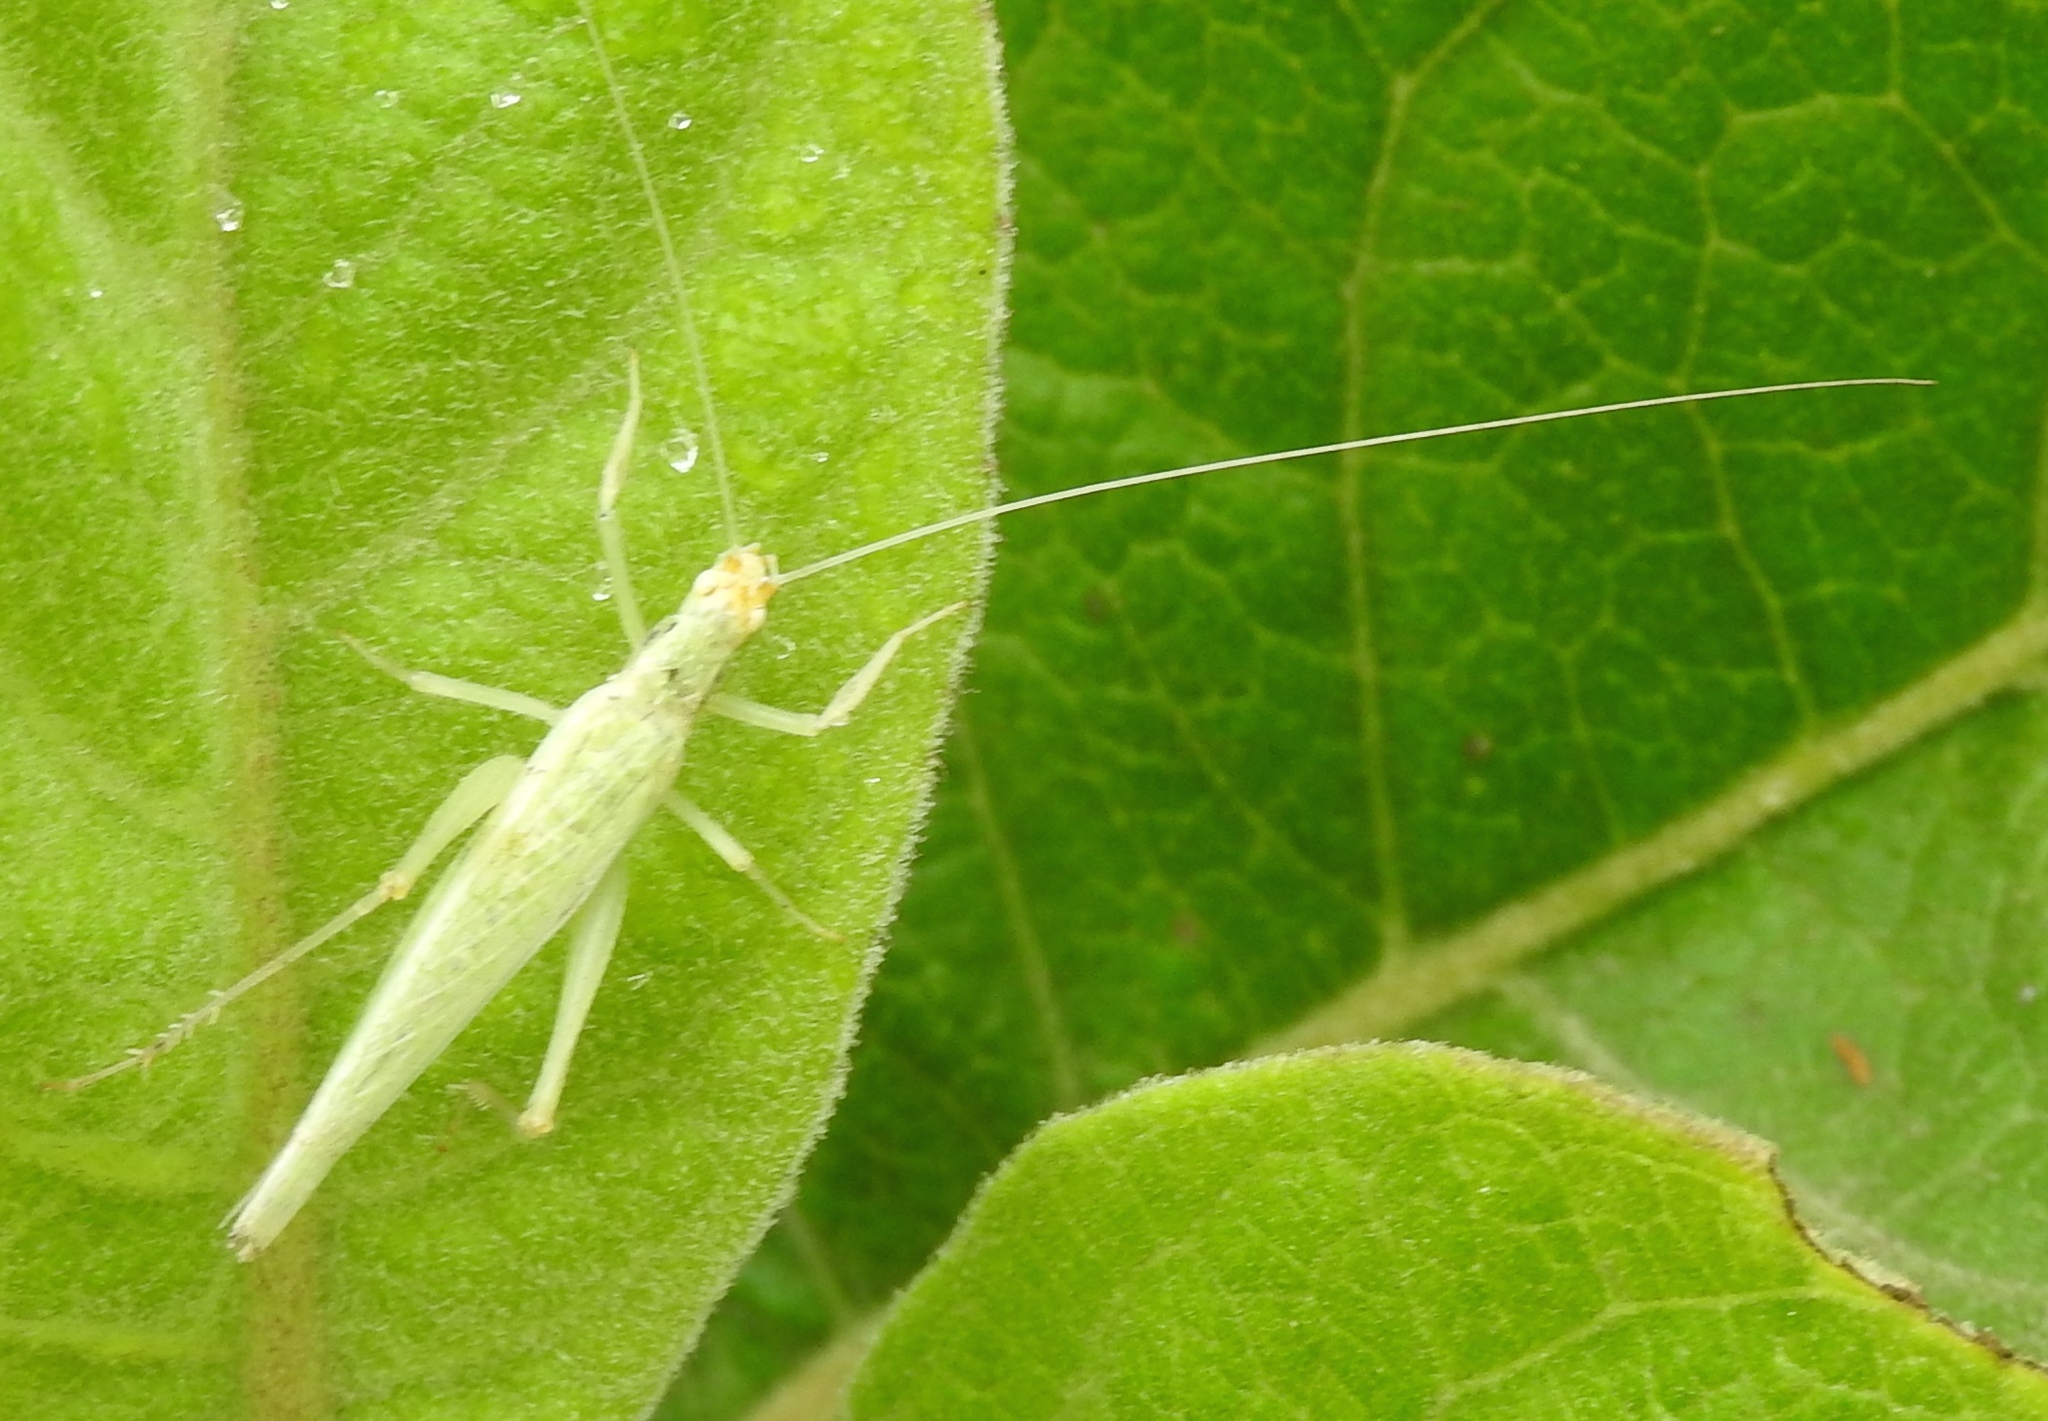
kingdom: Animalia
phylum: Arthropoda
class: Insecta
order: Orthoptera
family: Gryllidae
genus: Oecanthus
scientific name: Oecanthus
